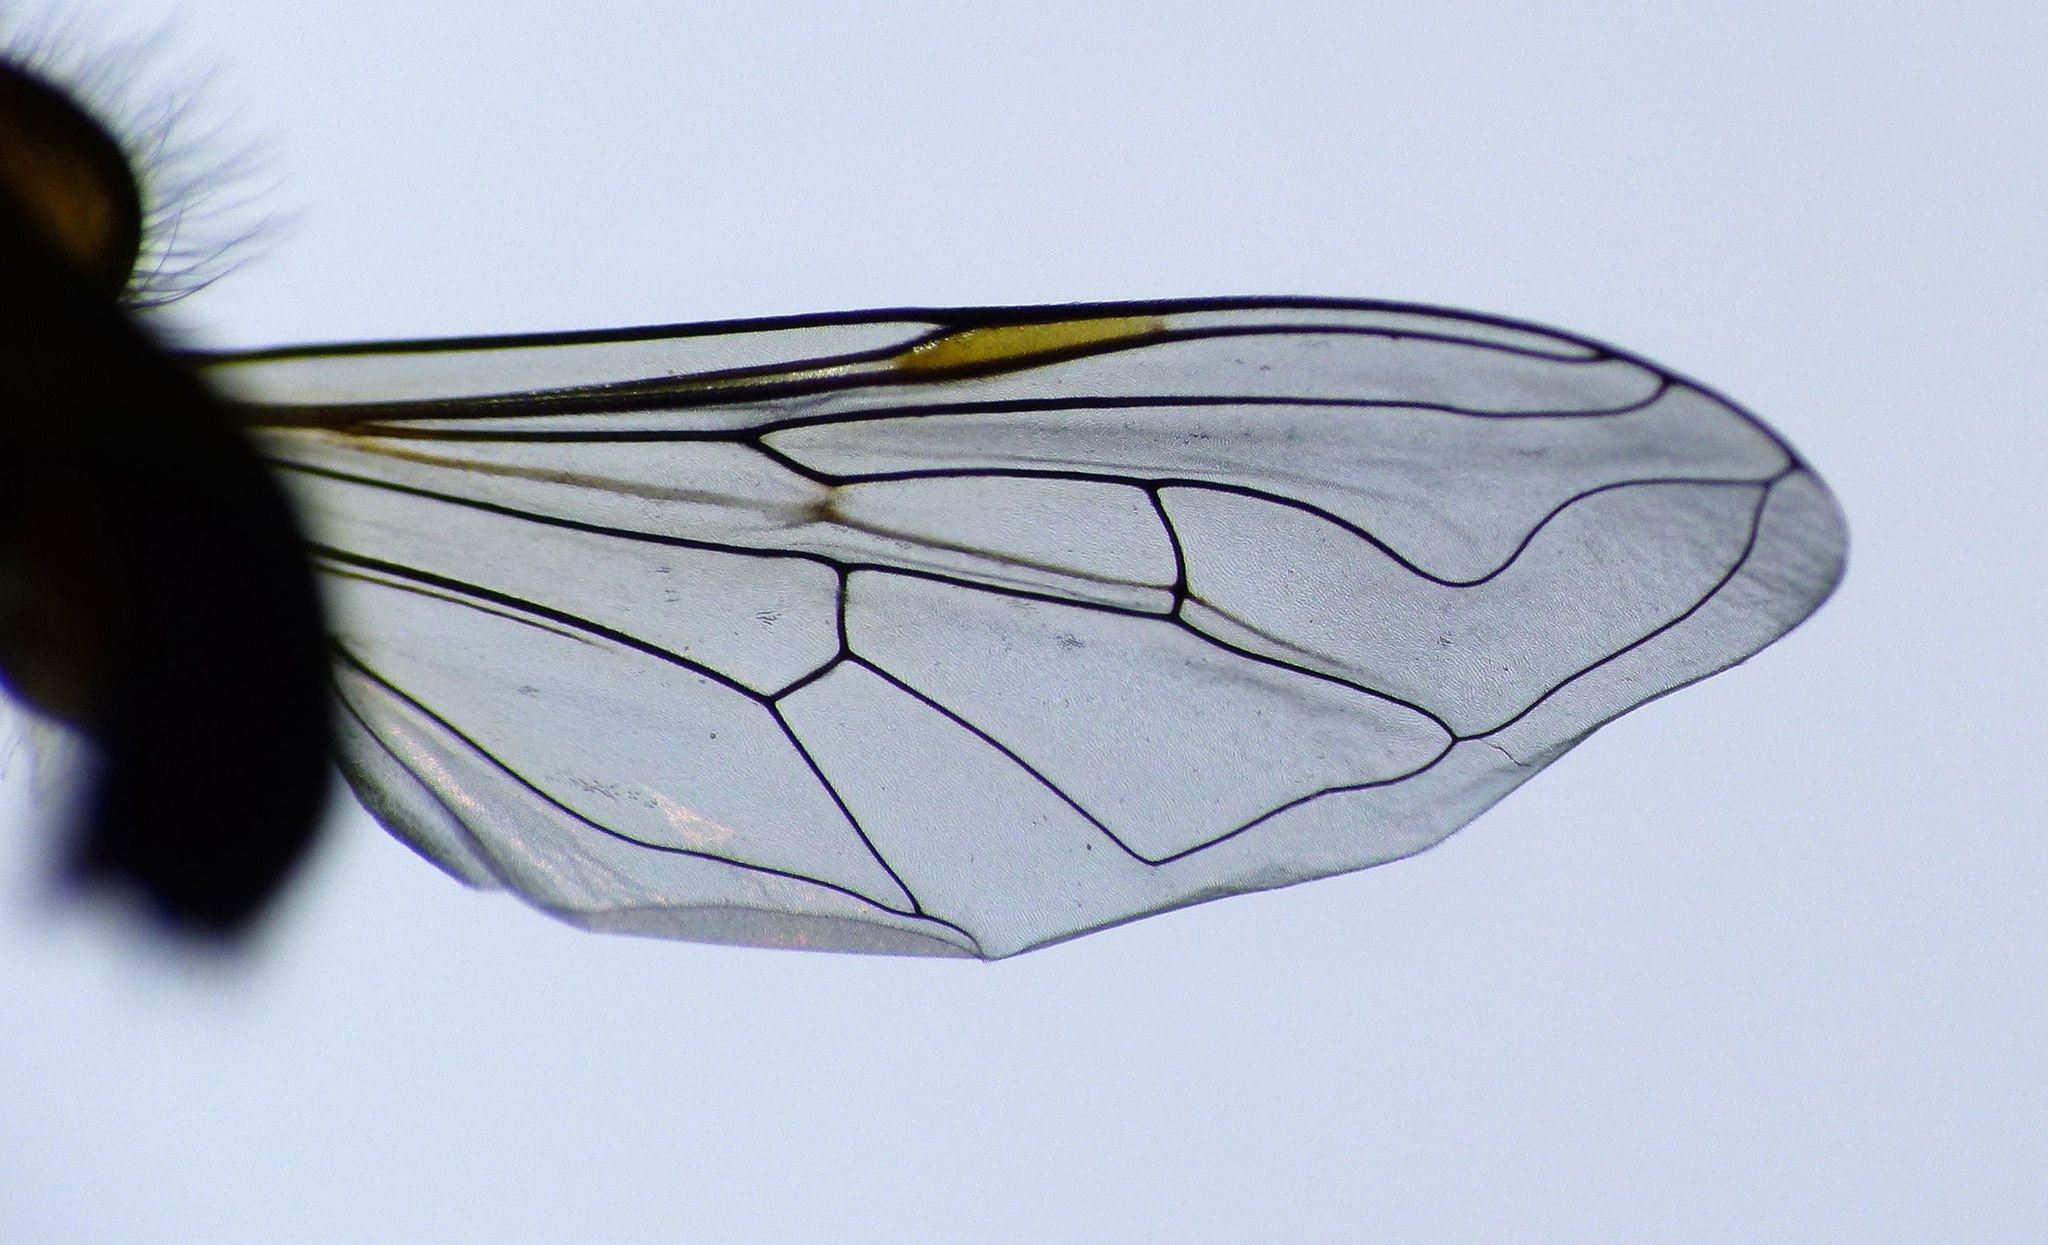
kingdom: Animalia
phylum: Arthropoda
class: Insecta
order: Diptera
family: Syrphidae
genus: Helophilus
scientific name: Helophilus chathamensis
